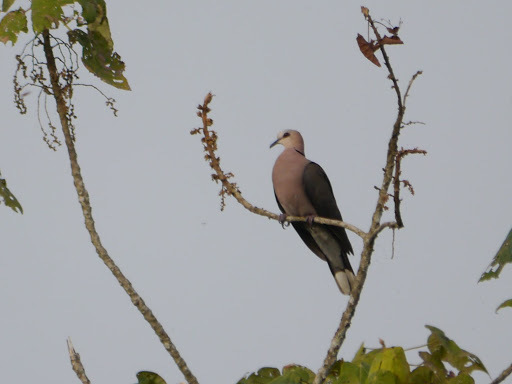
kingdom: Animalia
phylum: Chordata
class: Aves
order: Columbiformes
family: Columbidae
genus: Streptopelia
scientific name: Streptopelia semitorquata
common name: Red-eyed dove
